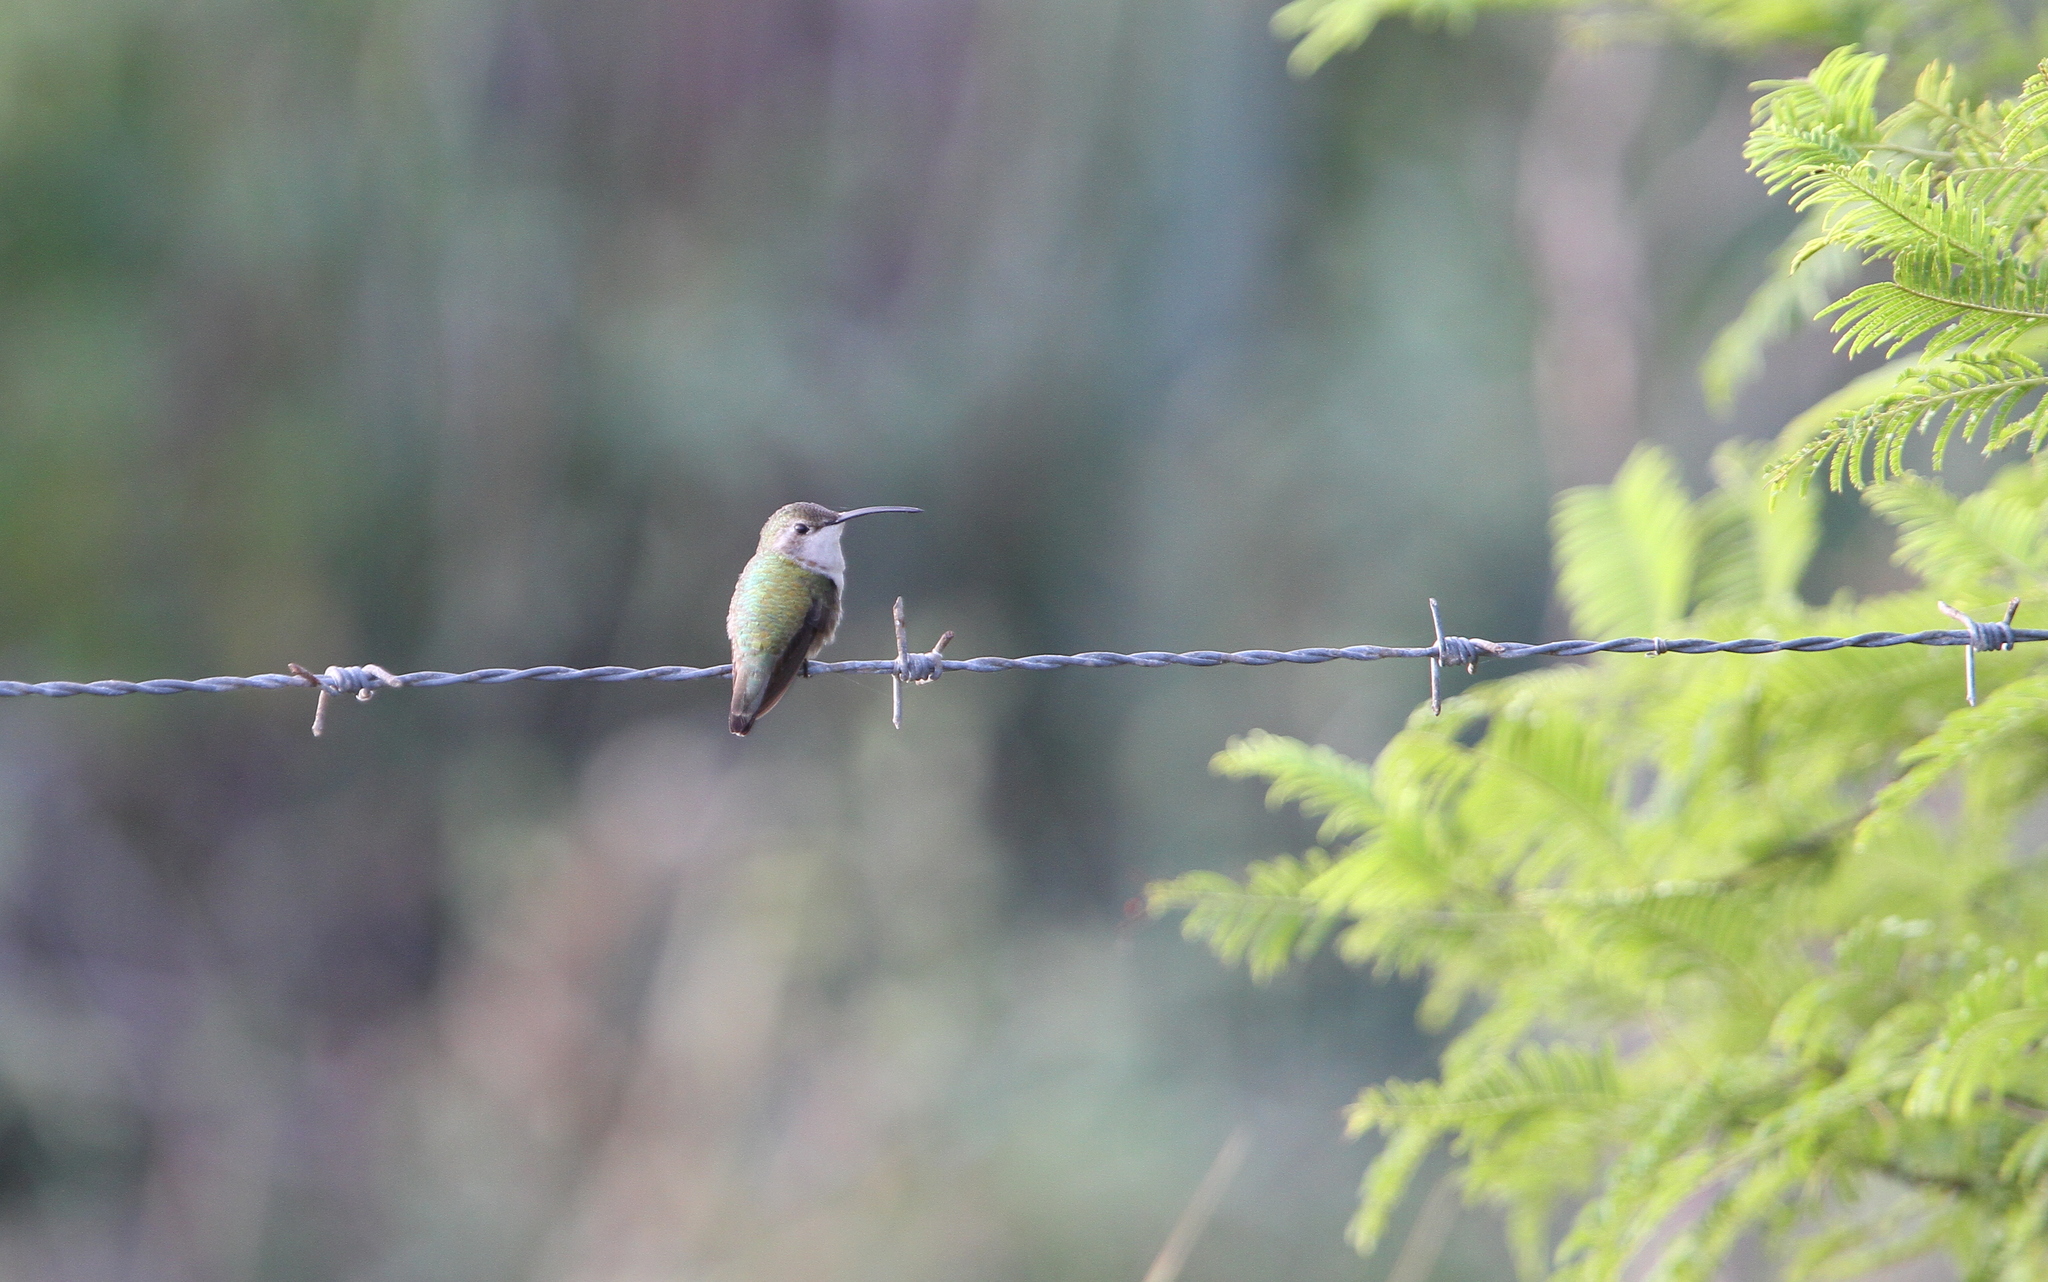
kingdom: Animalia
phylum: Chordata
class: Aves
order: Apodiformes
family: Trochilidae
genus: Doricha
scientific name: Doricha eliza
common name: Mexican sheartail
